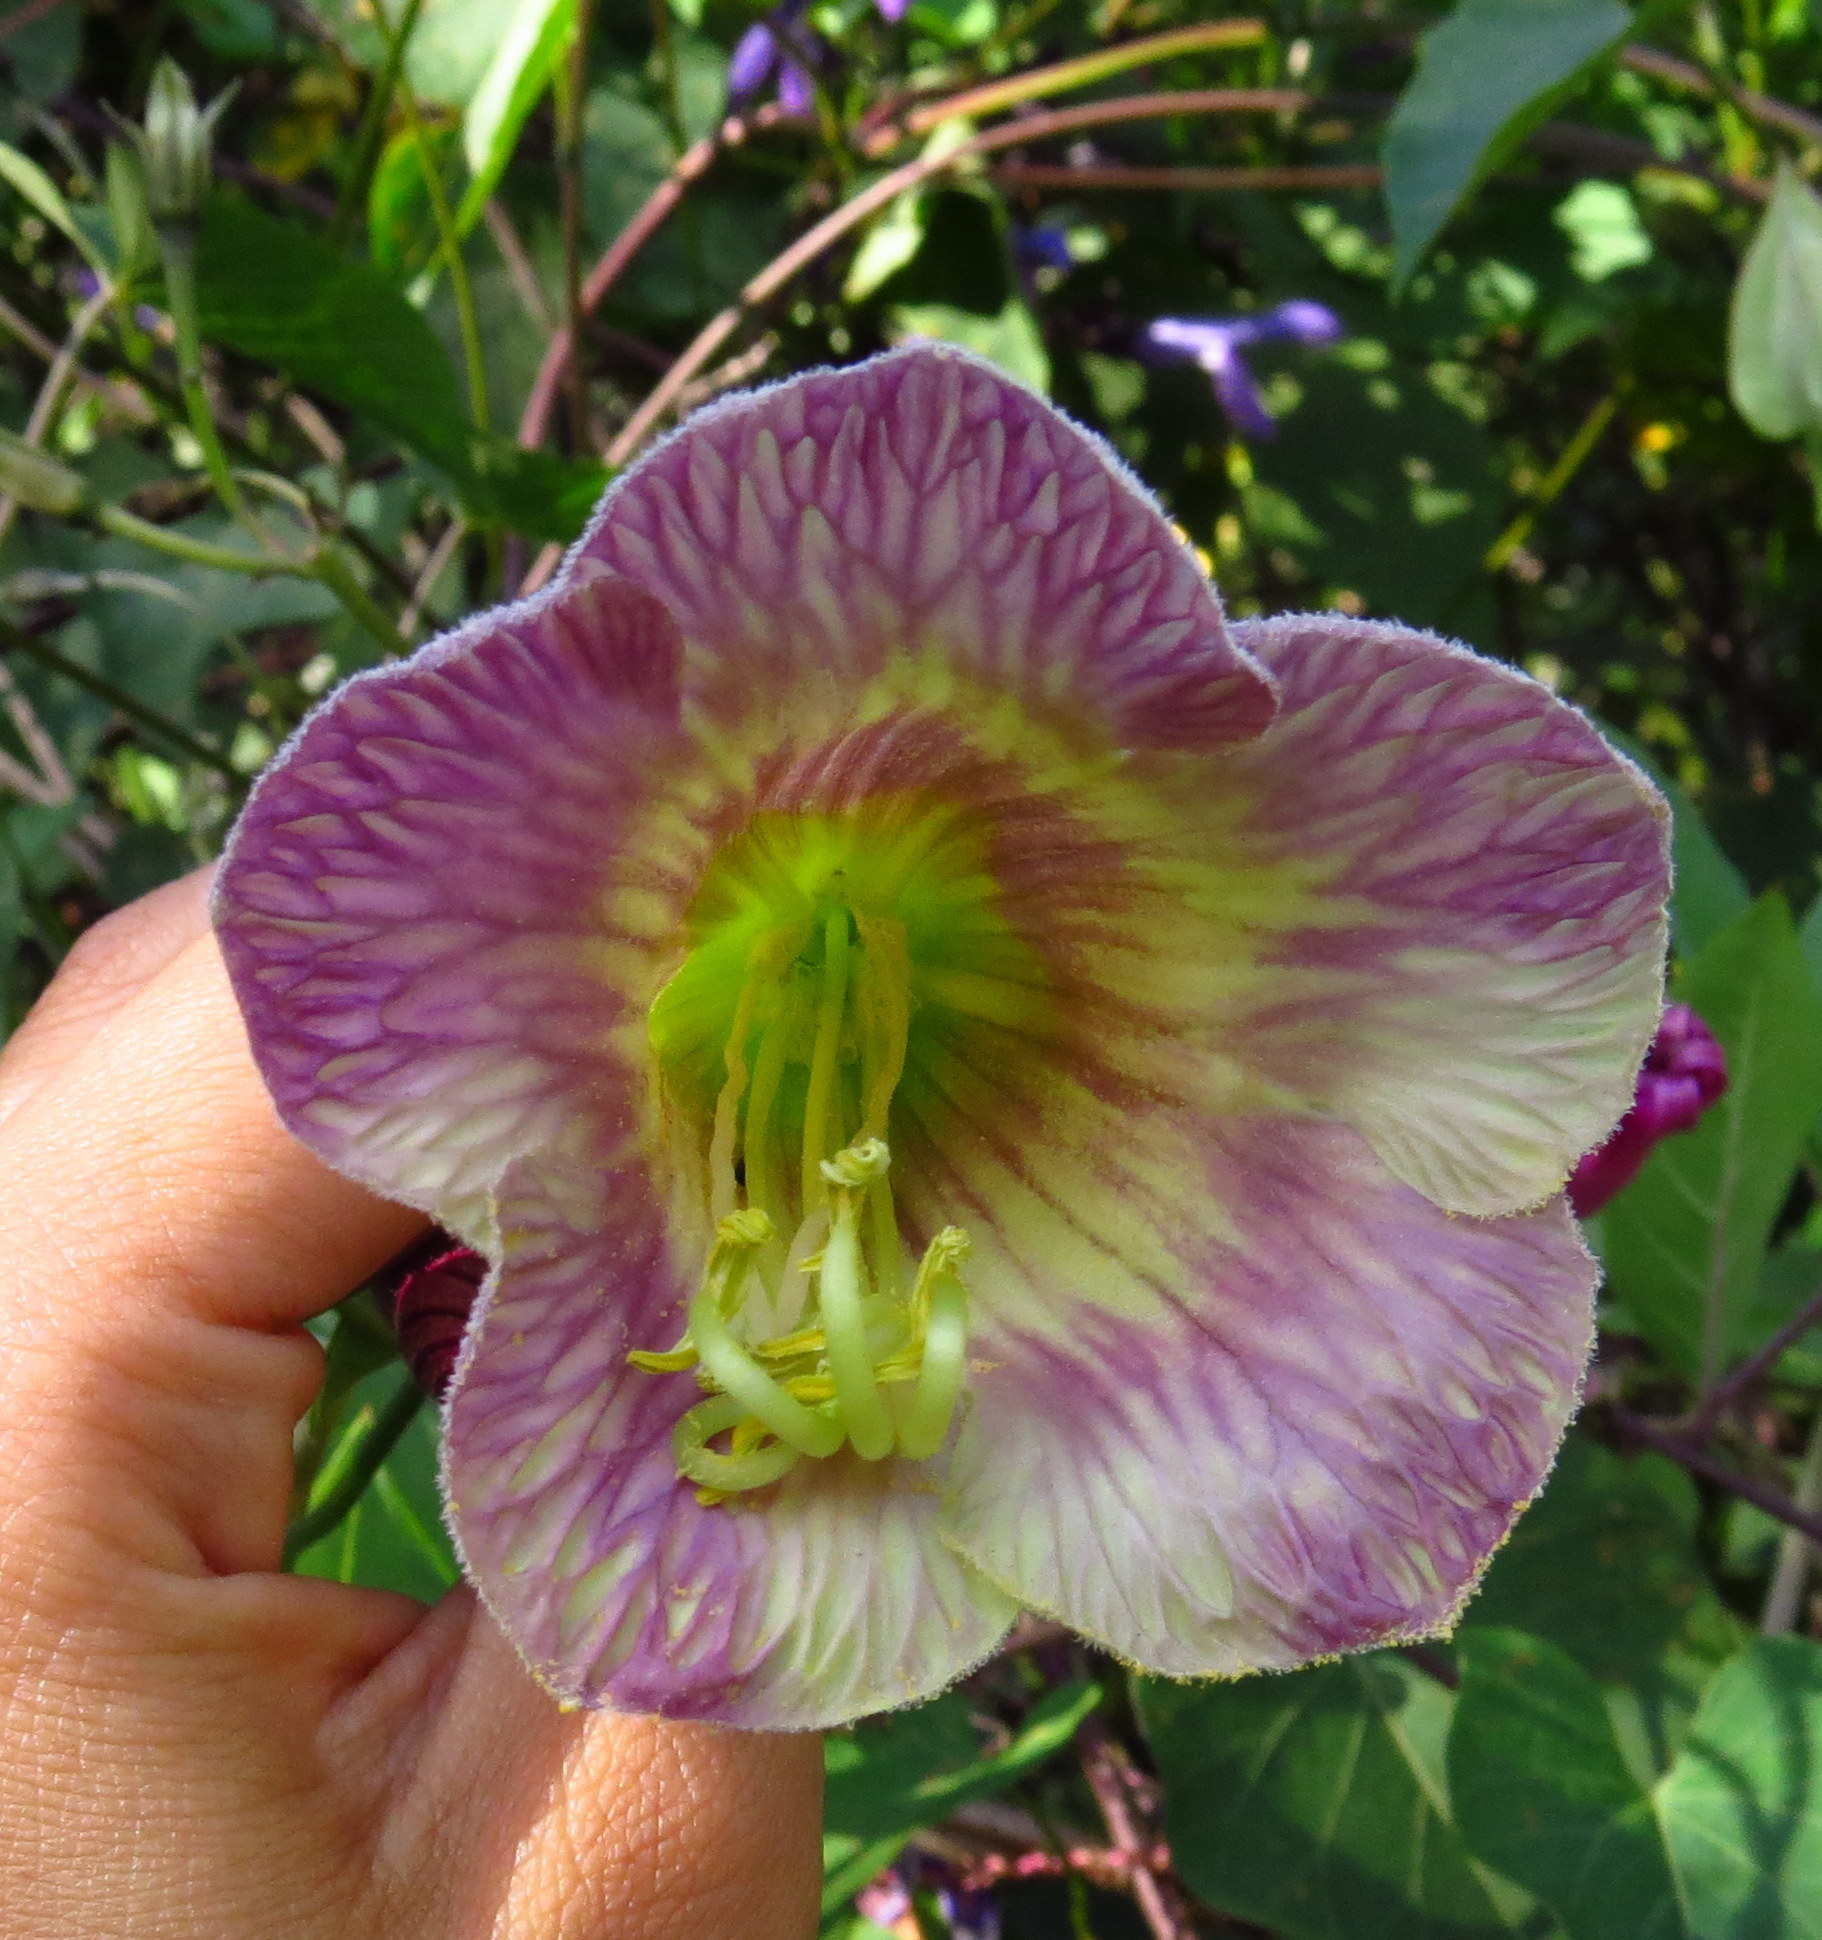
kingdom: Plantae
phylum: Tracheophyta
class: Magnoliopsida
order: Ericales
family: Polemoniaceae
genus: Cobaea
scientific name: Cobaea stipularis
